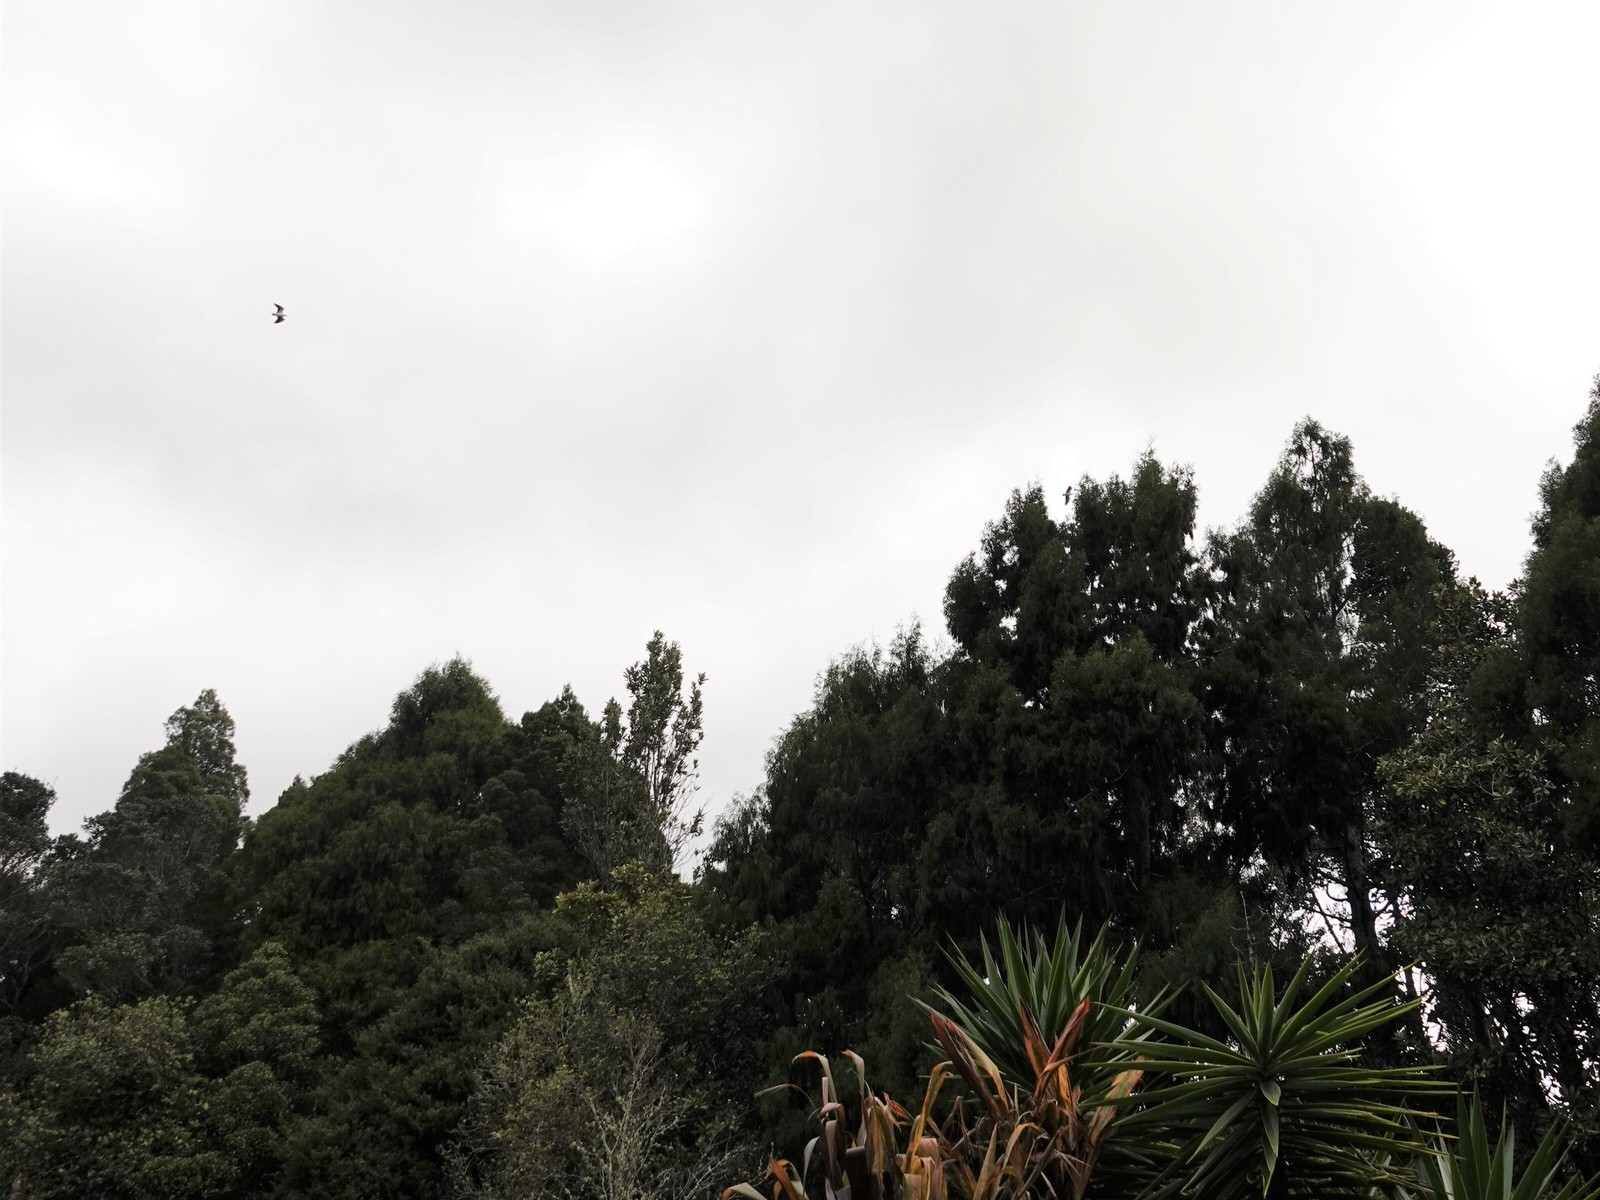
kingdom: Animalia
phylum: Chordata
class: Aves
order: Charadriiformes
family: Charadriidae
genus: Vanellus
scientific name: Vanellus miles
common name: Masked lapwing
